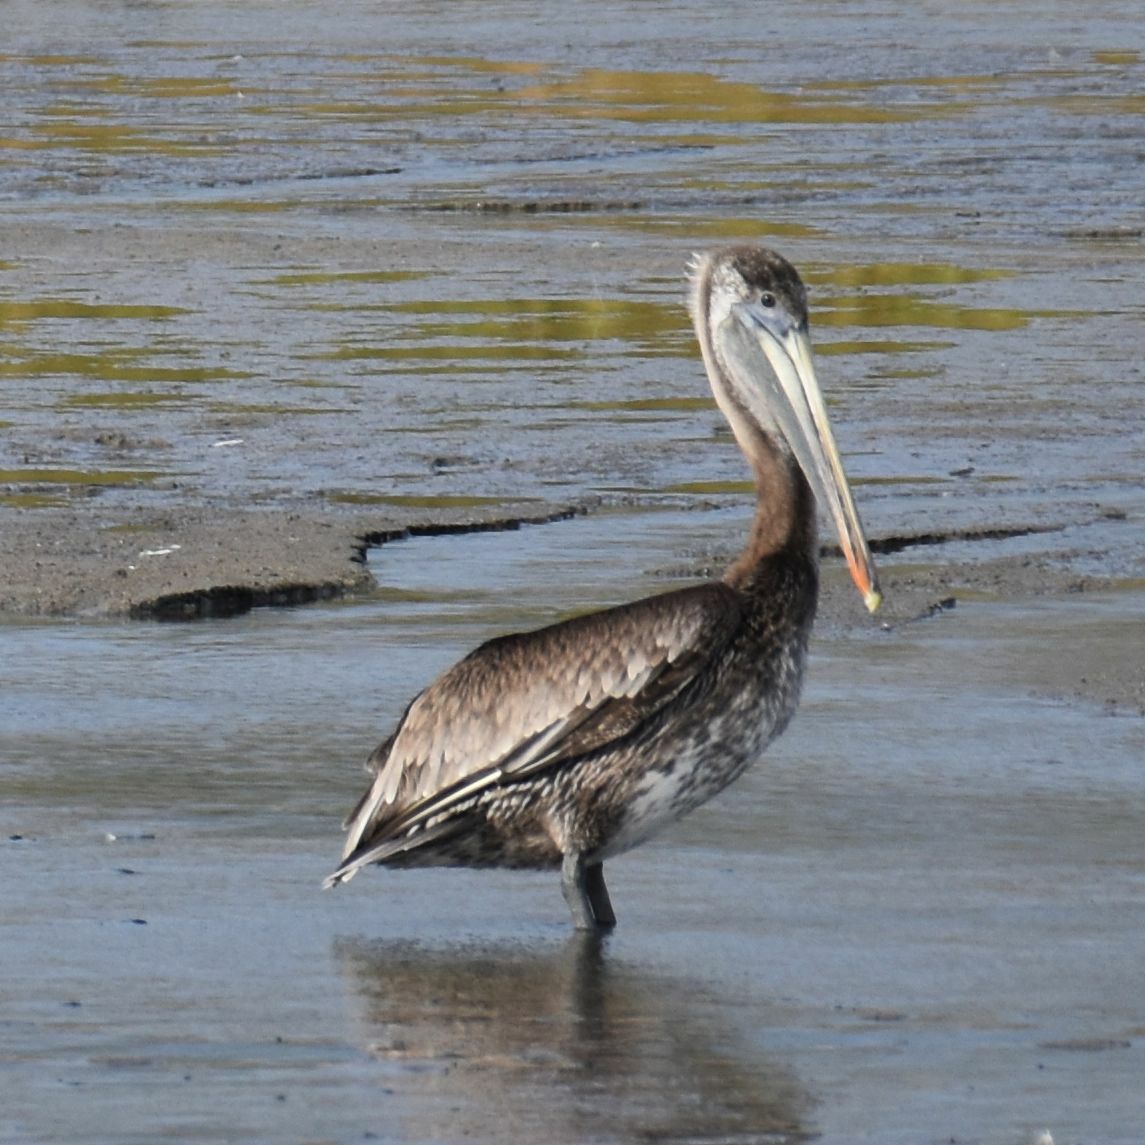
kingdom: Animalia
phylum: Chordata
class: Aves
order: Pelecaniformes
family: Pelecanidae
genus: Pelecanus
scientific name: Pelecanus occidentalis
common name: Brown pelican
